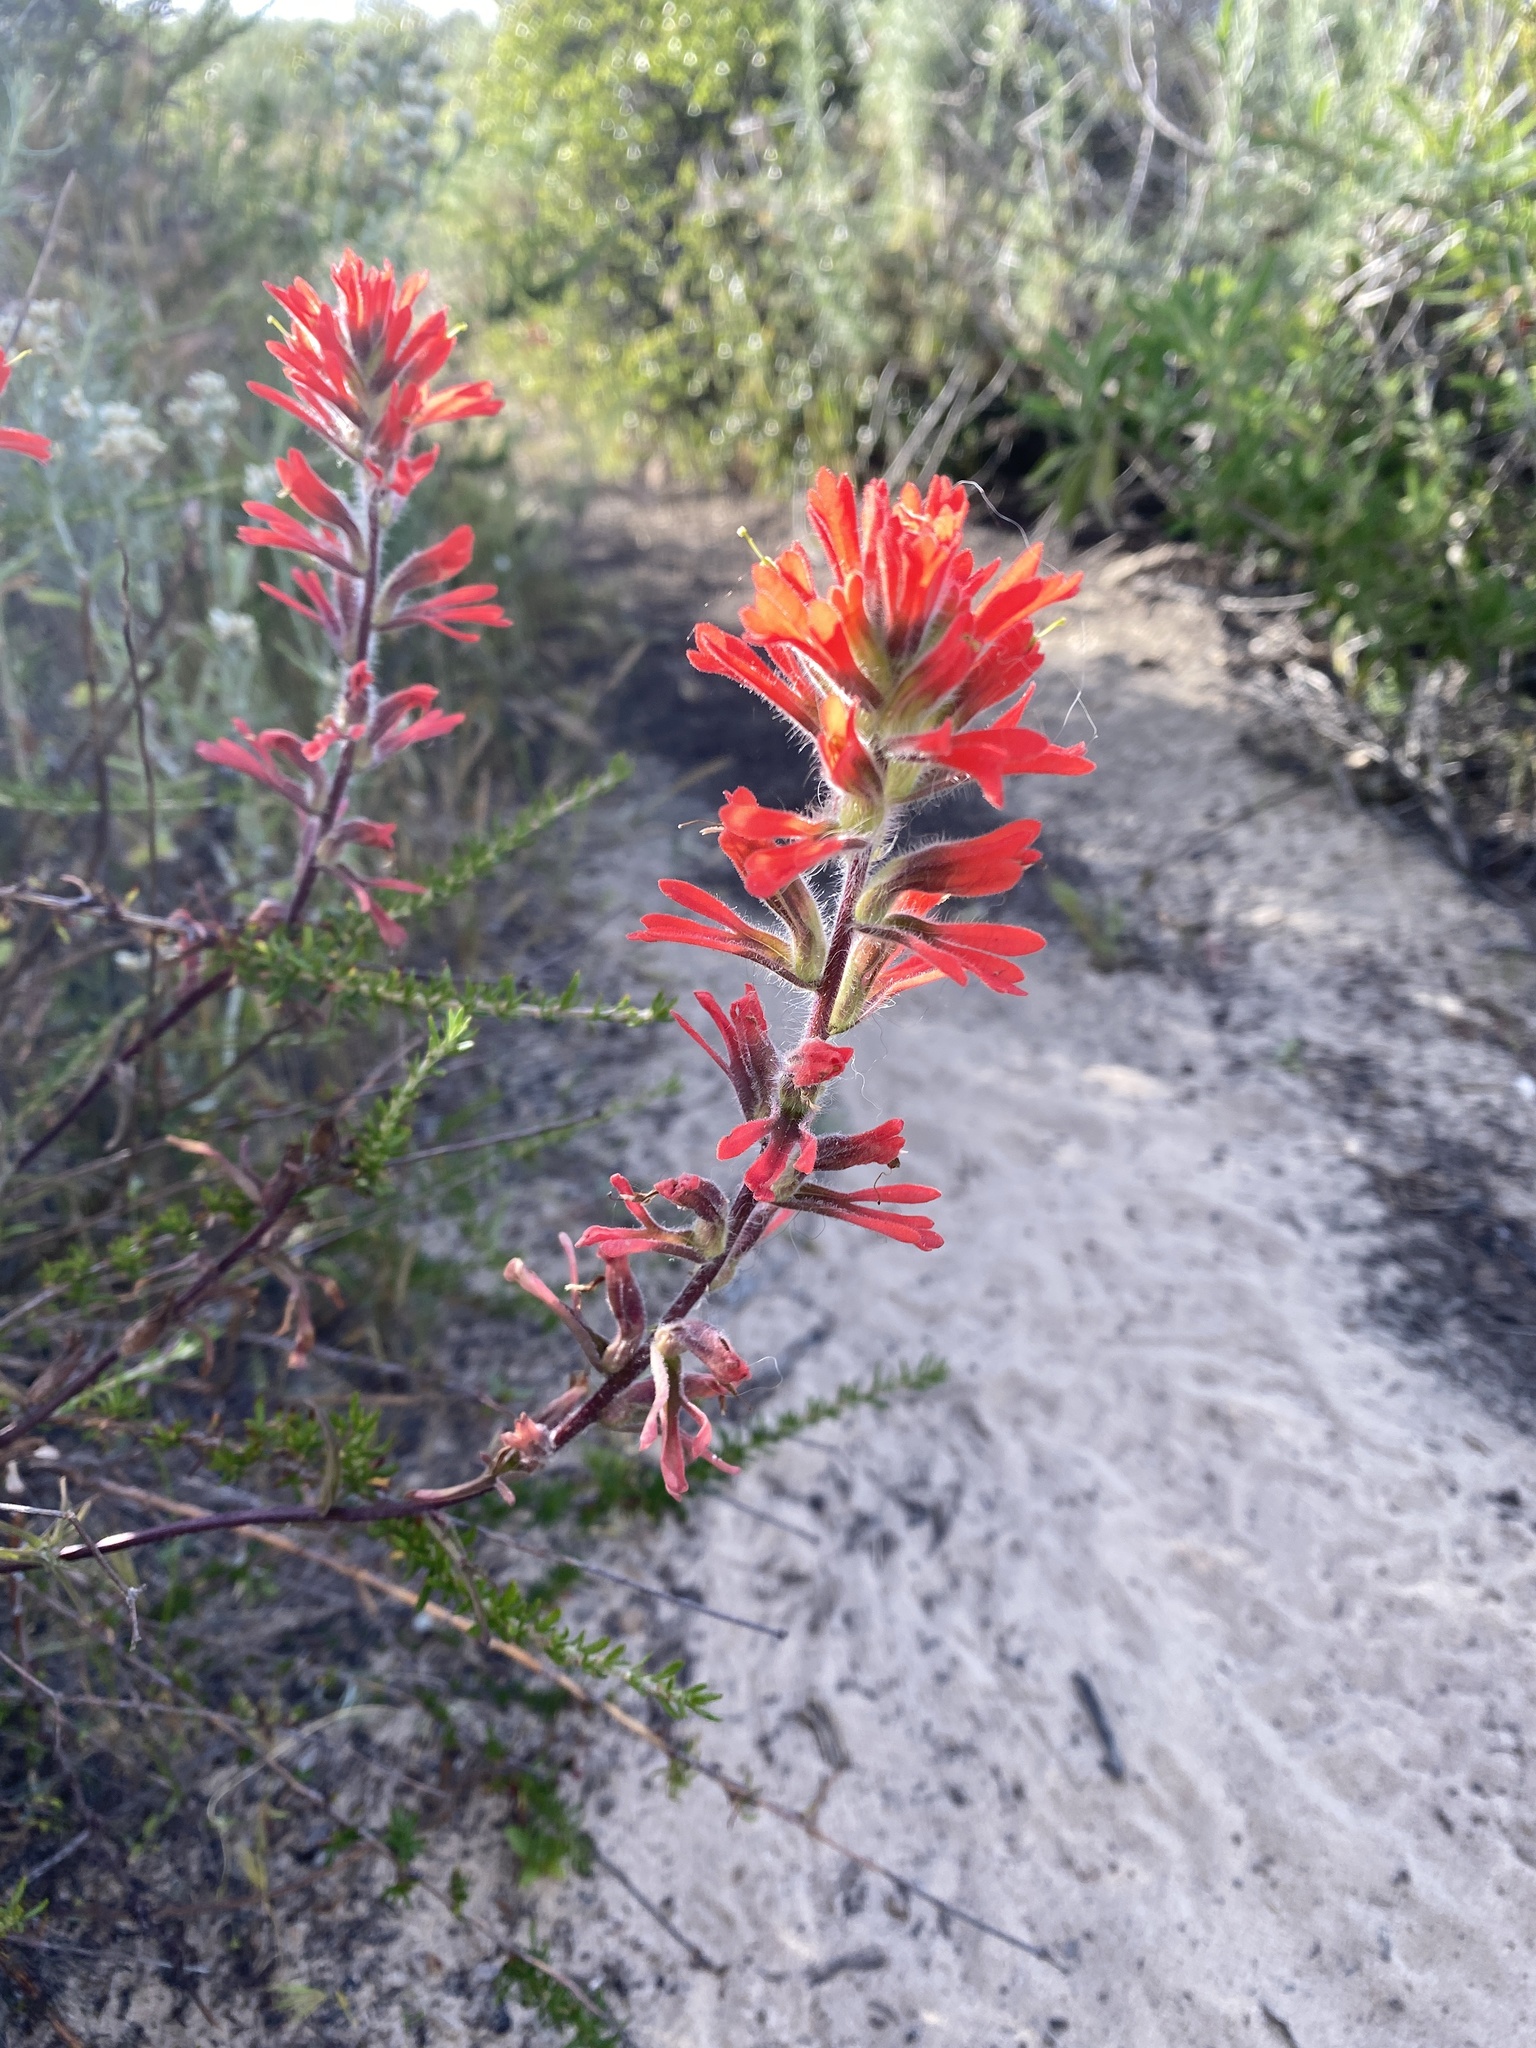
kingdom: Plantae
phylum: Tracheophyta
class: Magnoliopsida
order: Lamiales
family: Orobanchaceae
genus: Castilleja
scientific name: Castilleja affinis
